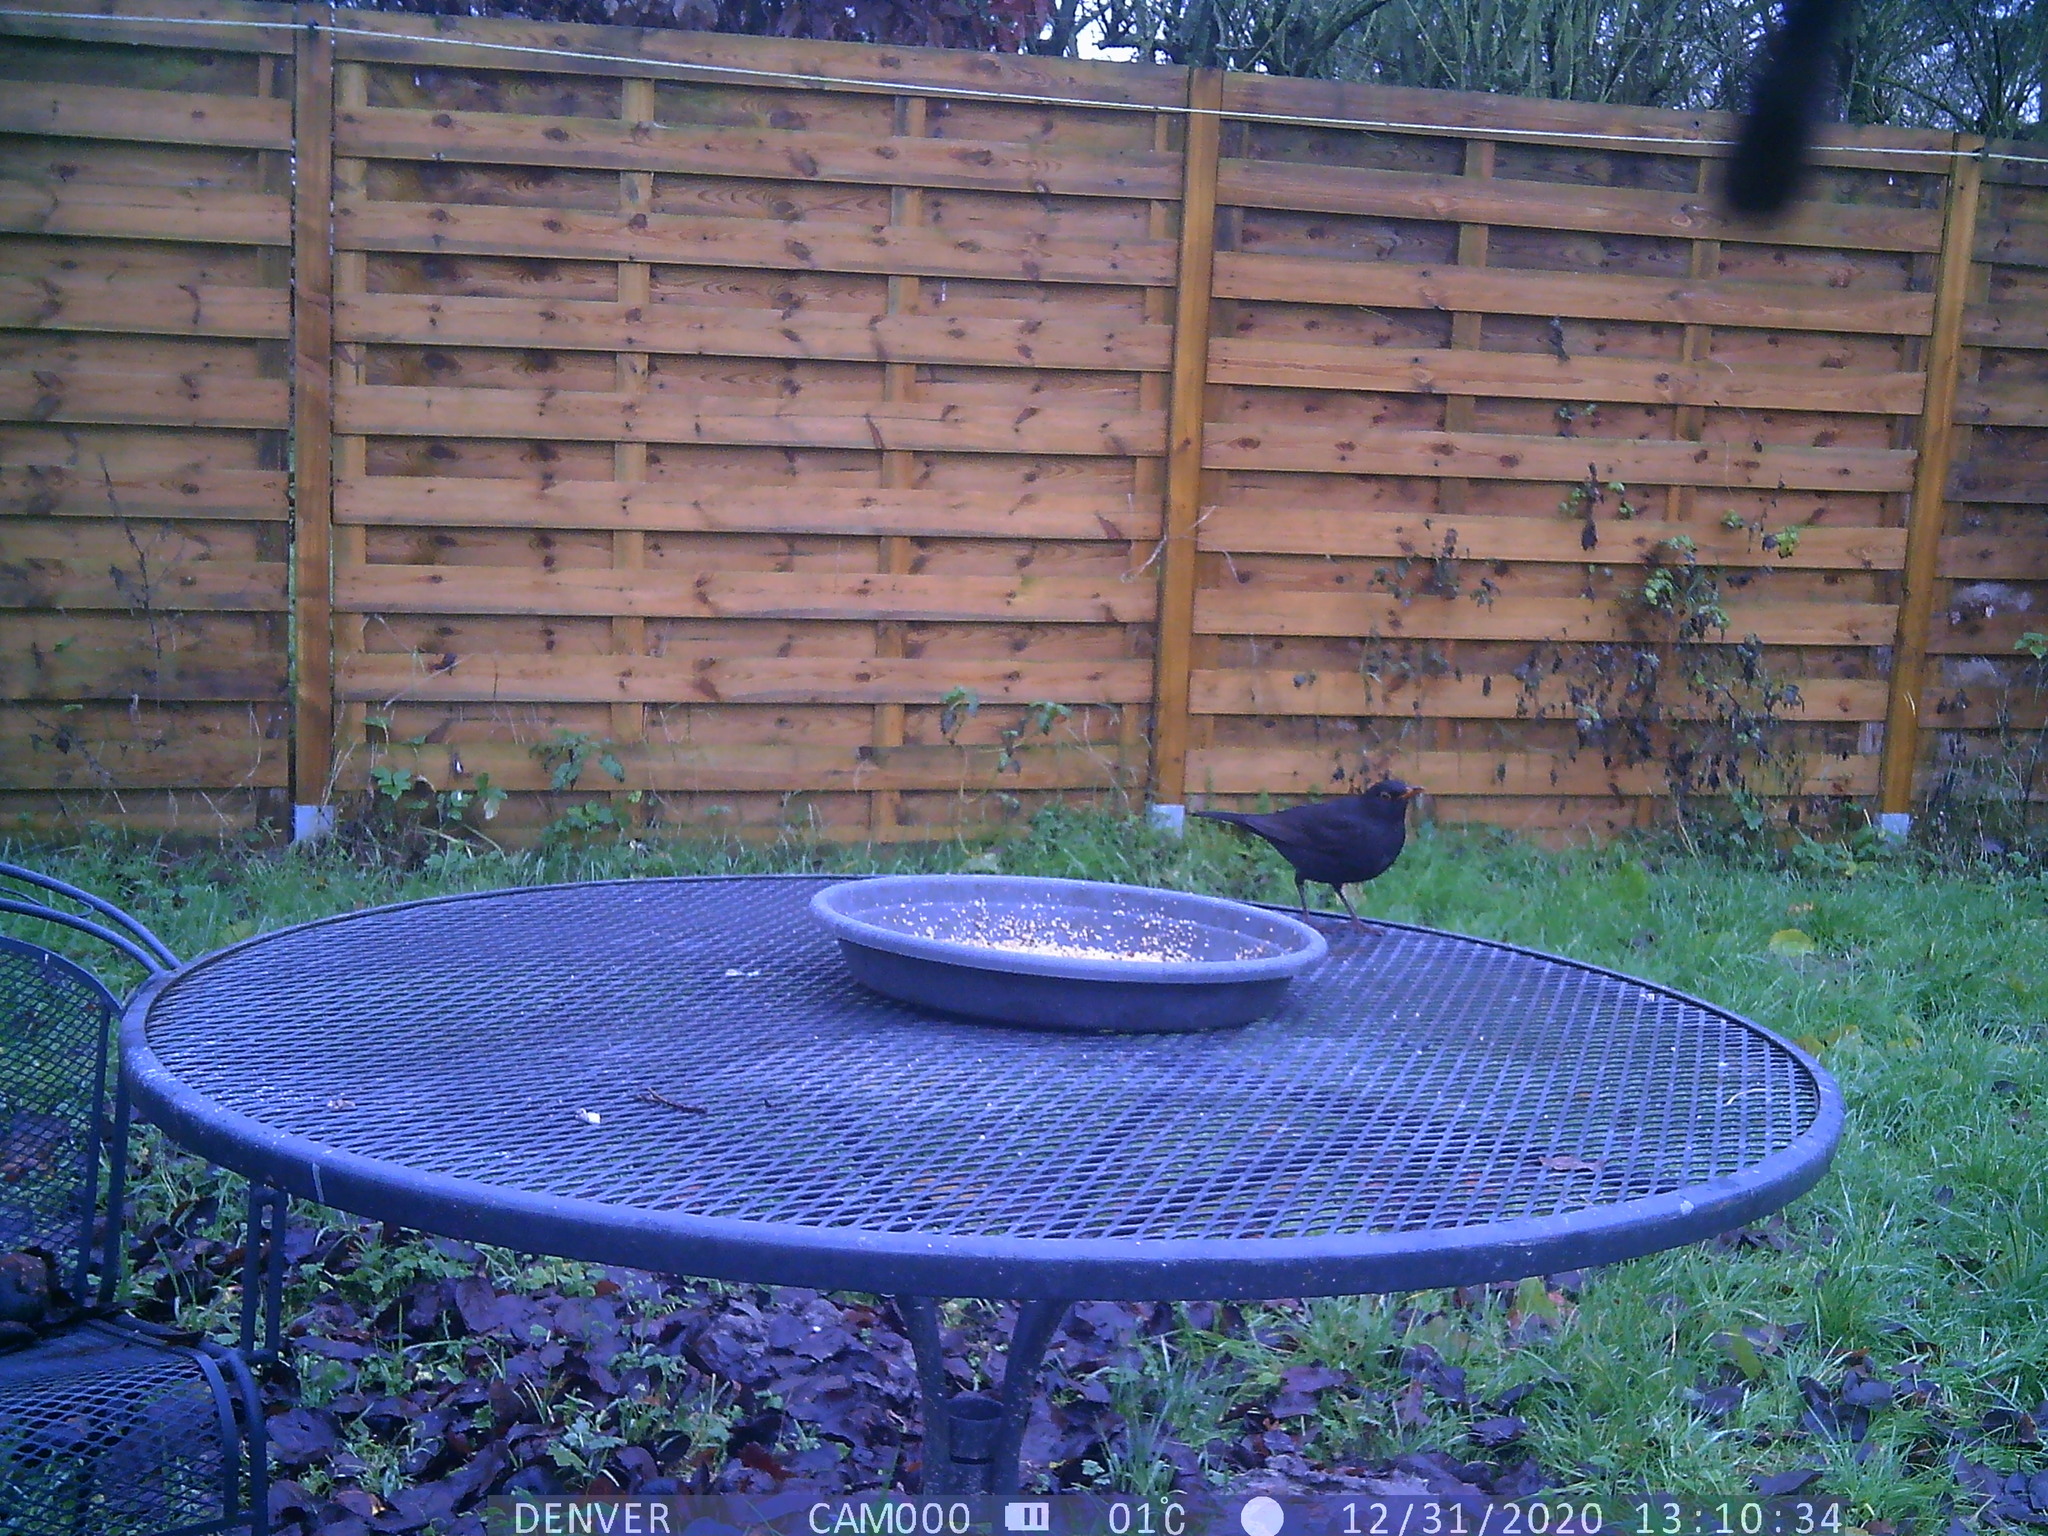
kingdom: Animalia
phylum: Chordata
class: Aves
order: Passeriformes
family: Turdidae
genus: Turdus
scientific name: Turdus merula
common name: Common blackbird
